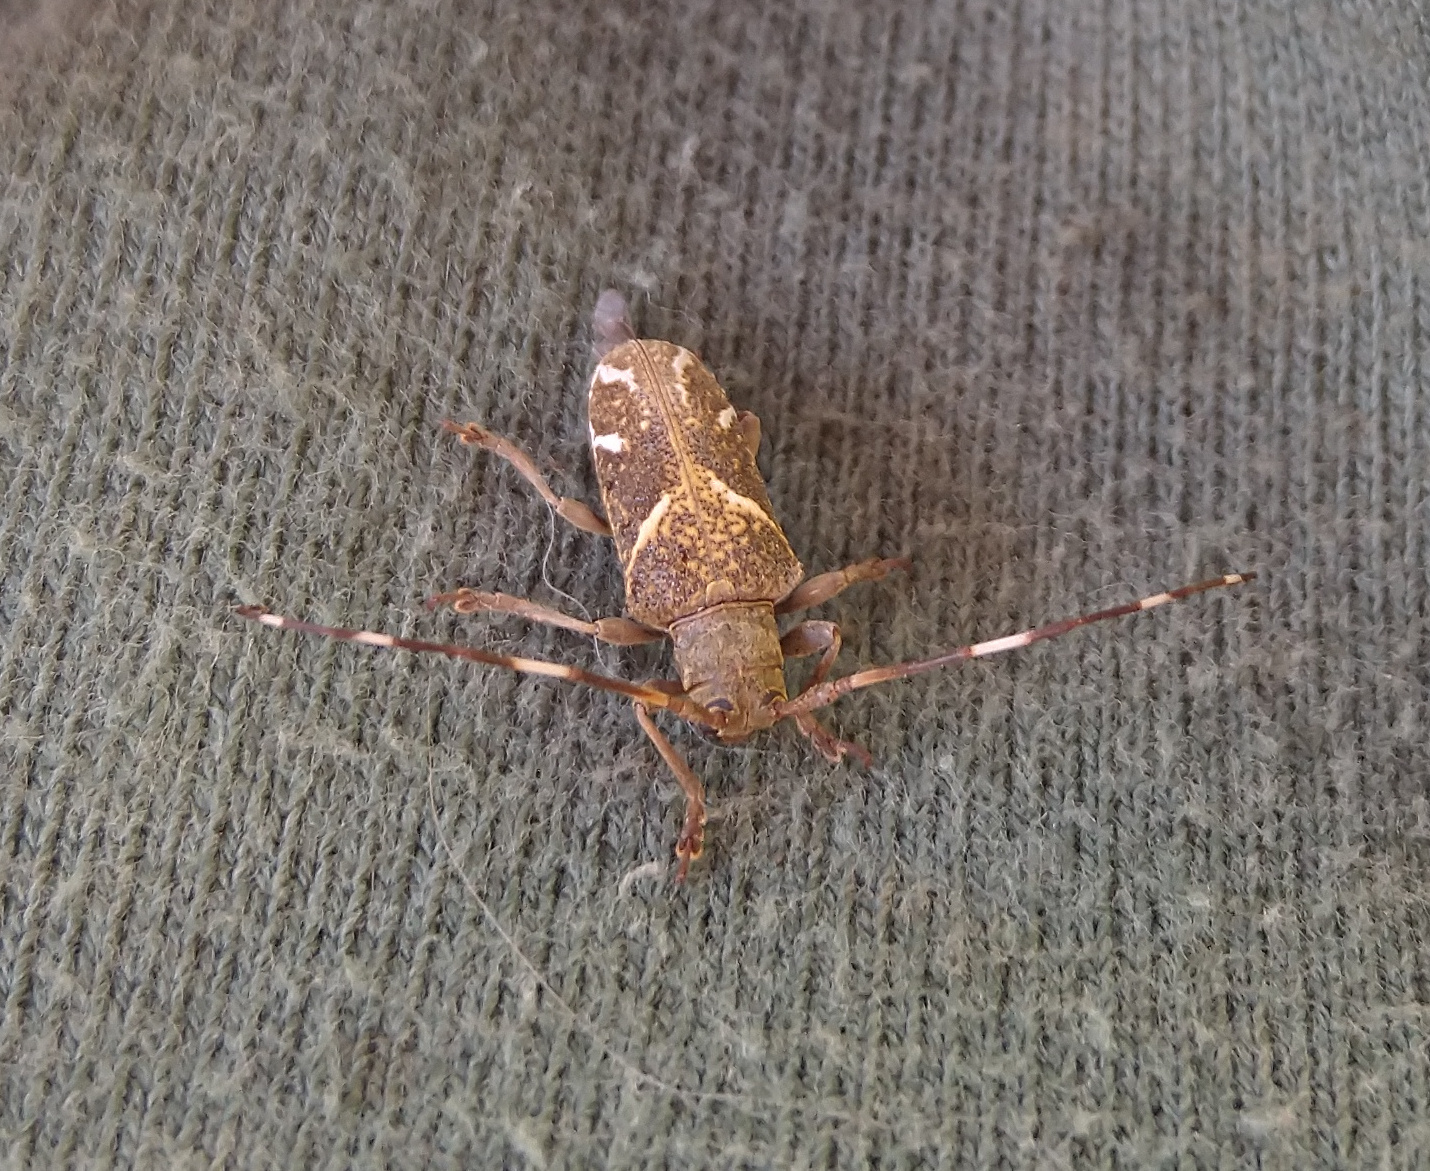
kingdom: Animalia
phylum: Arthropoda
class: Insecta
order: Coleoptera
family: Cerambycidae
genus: Apamauta
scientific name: Apamauta lineolata
